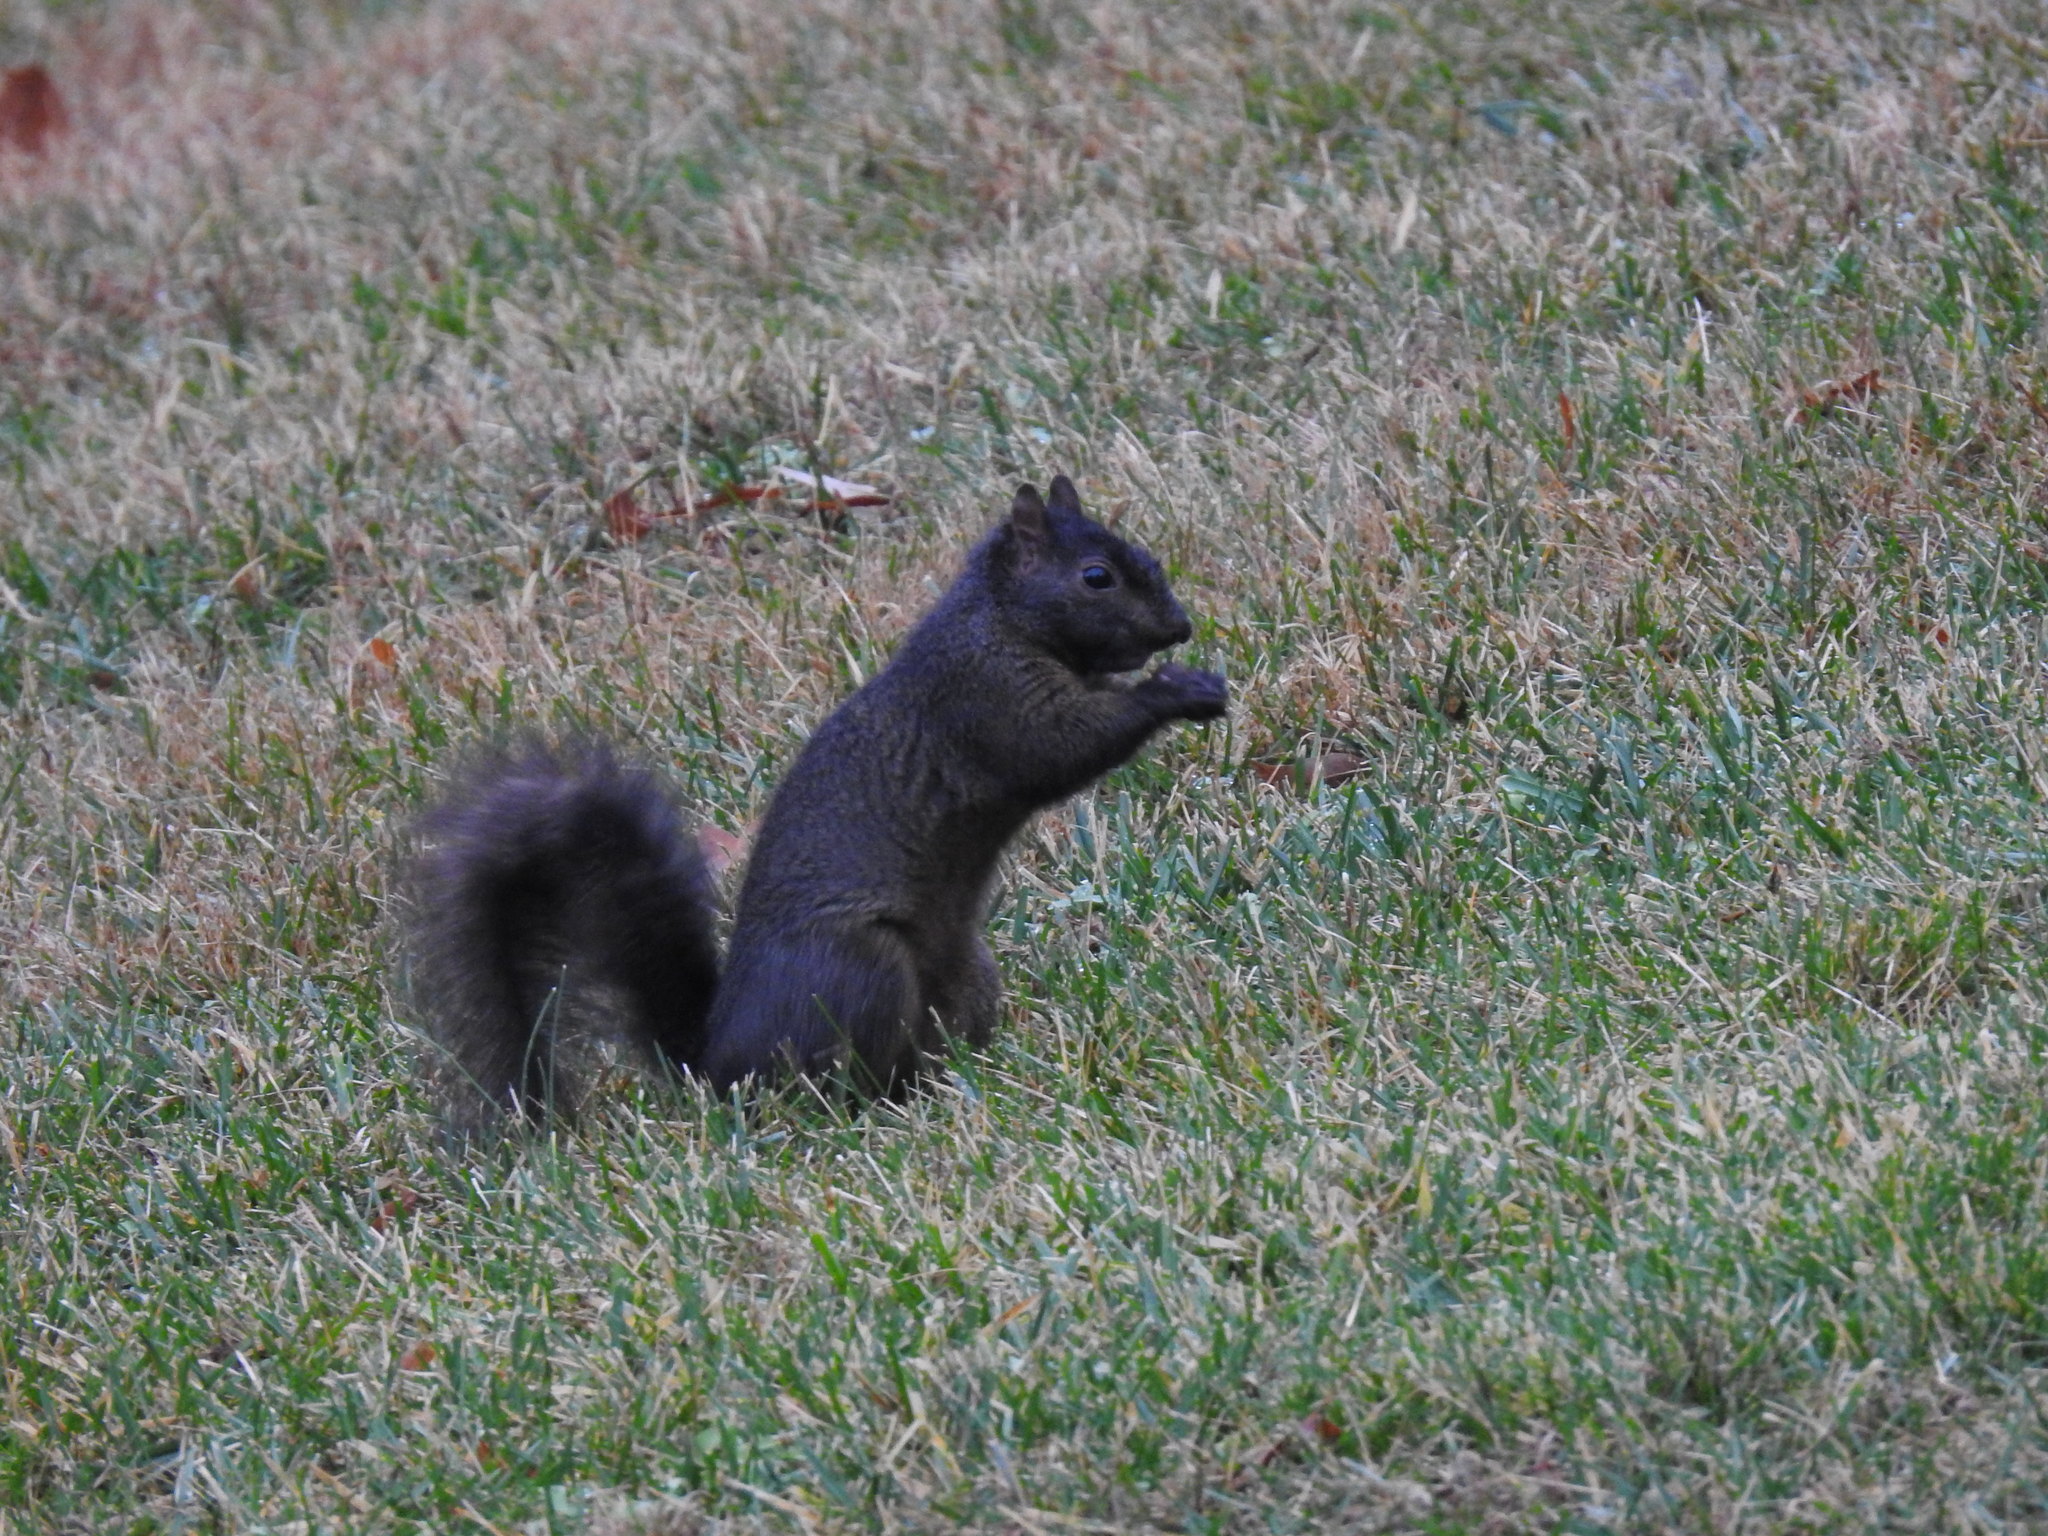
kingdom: Animalia
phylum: Chordata
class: Mammalia
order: Rodentia
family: Sciuridae
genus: Sciurus
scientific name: Sciurus carolinensis
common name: Eastern gray squirrel
